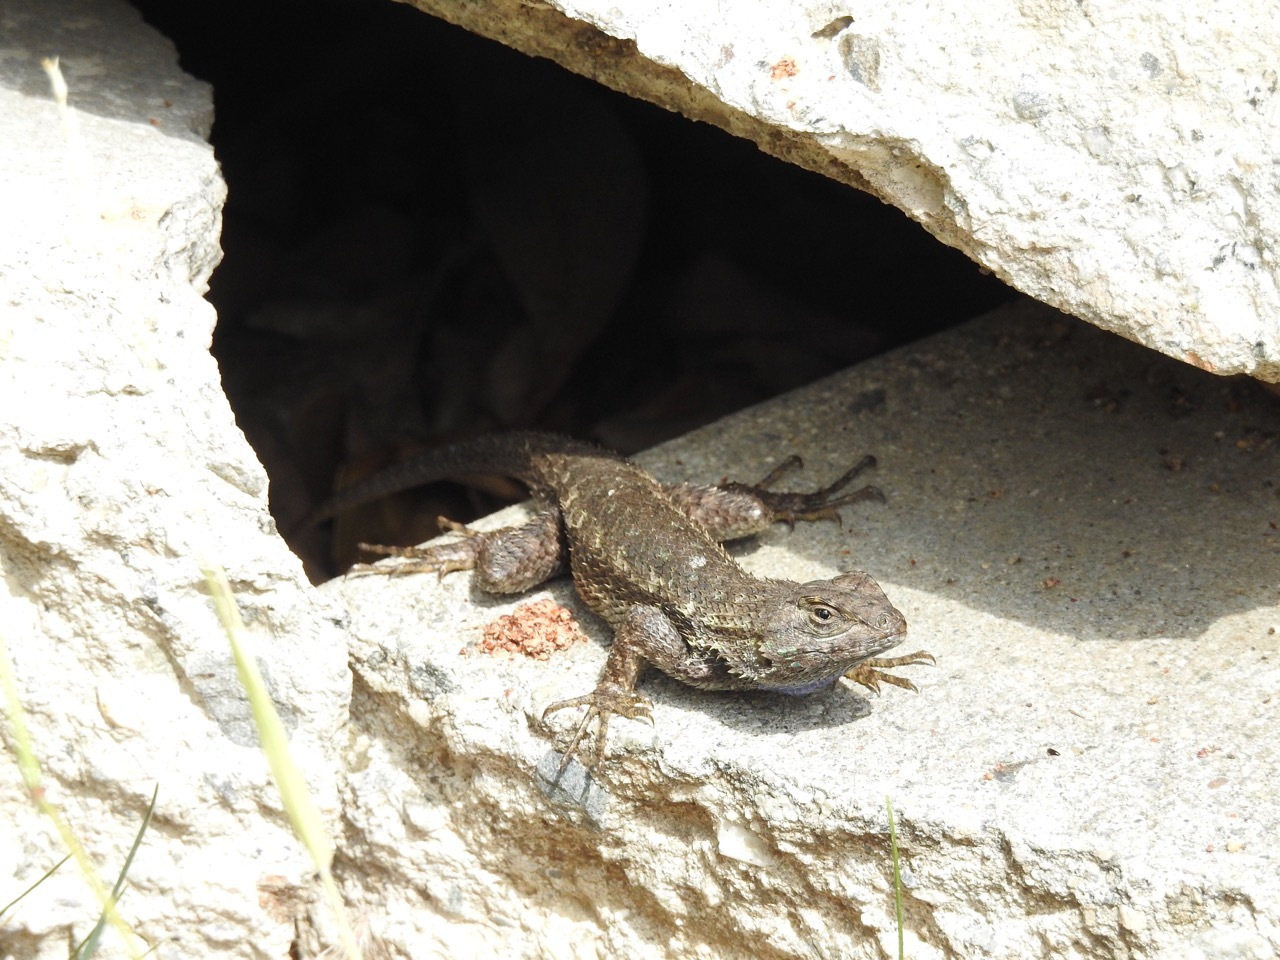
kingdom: Animalia
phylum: Chordata
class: Squamata
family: Phrynosomatidae
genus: Sceloporus
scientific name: Sceloporus occidentalis
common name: Western fence lizard
